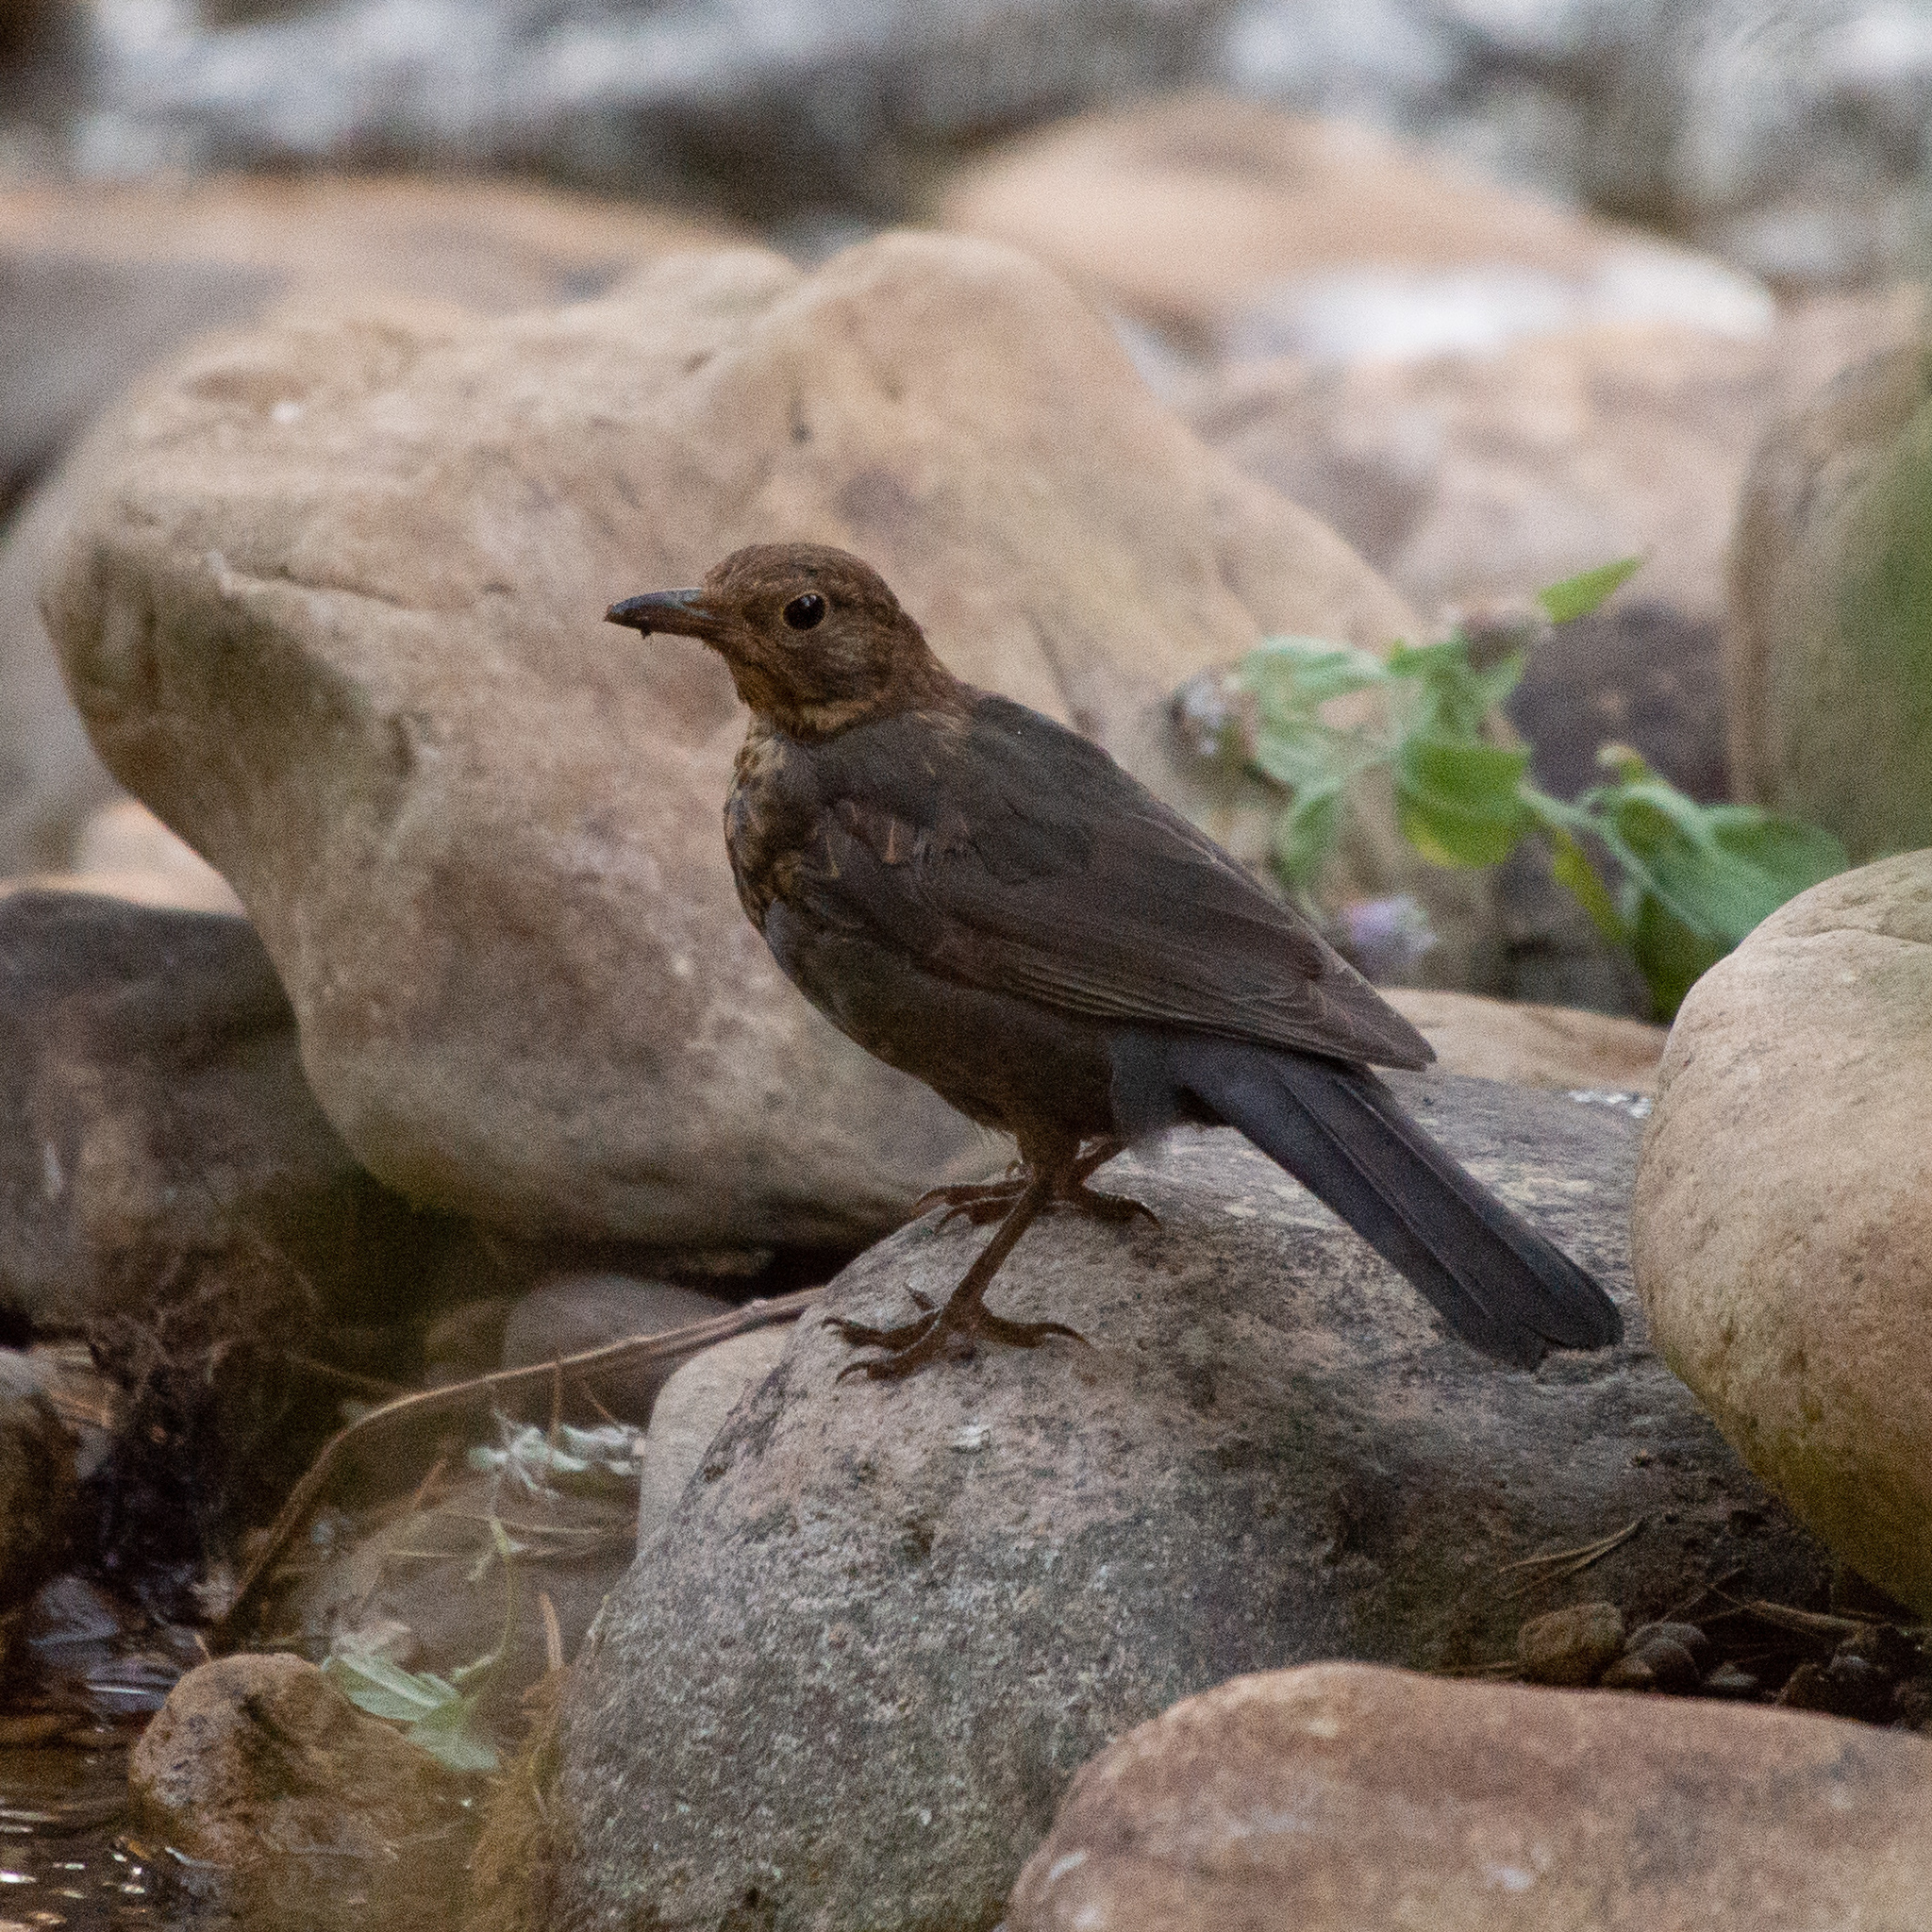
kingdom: Animalia
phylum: Chordata
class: Aves
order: Passeriformes
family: Turdidae
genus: Turdus
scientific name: Turdus merula
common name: Common blackbird
